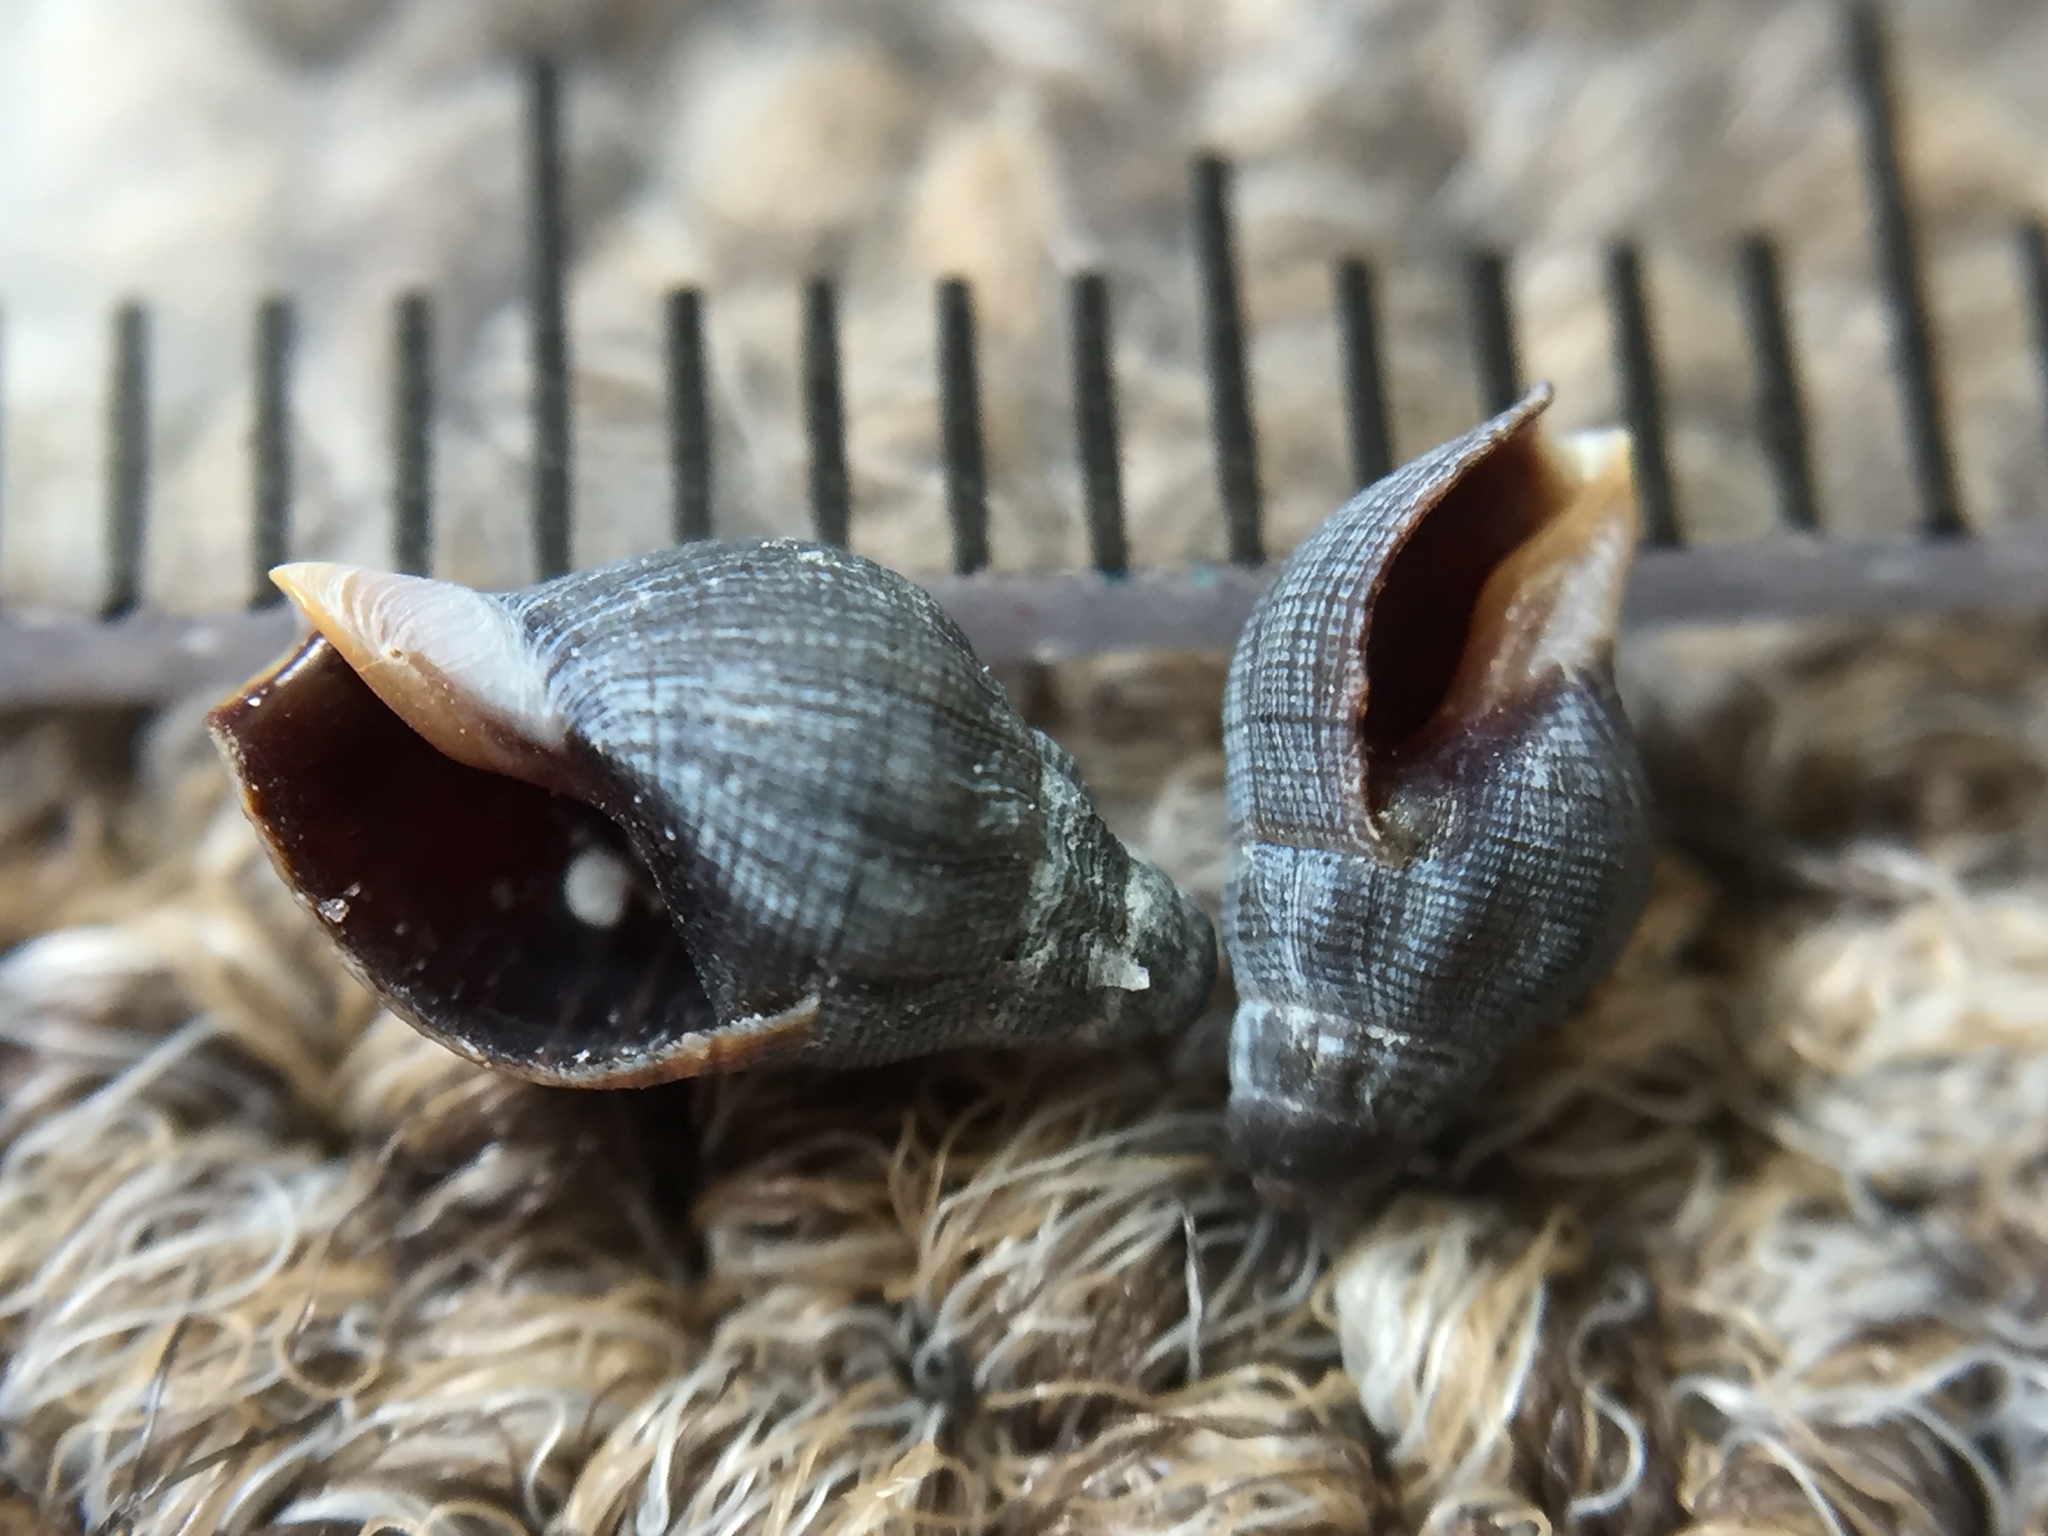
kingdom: Animalia
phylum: Mollusca
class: Gastropoda
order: Neogastropoda
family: Cominellidae
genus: Cominella
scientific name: Cominella virgata
